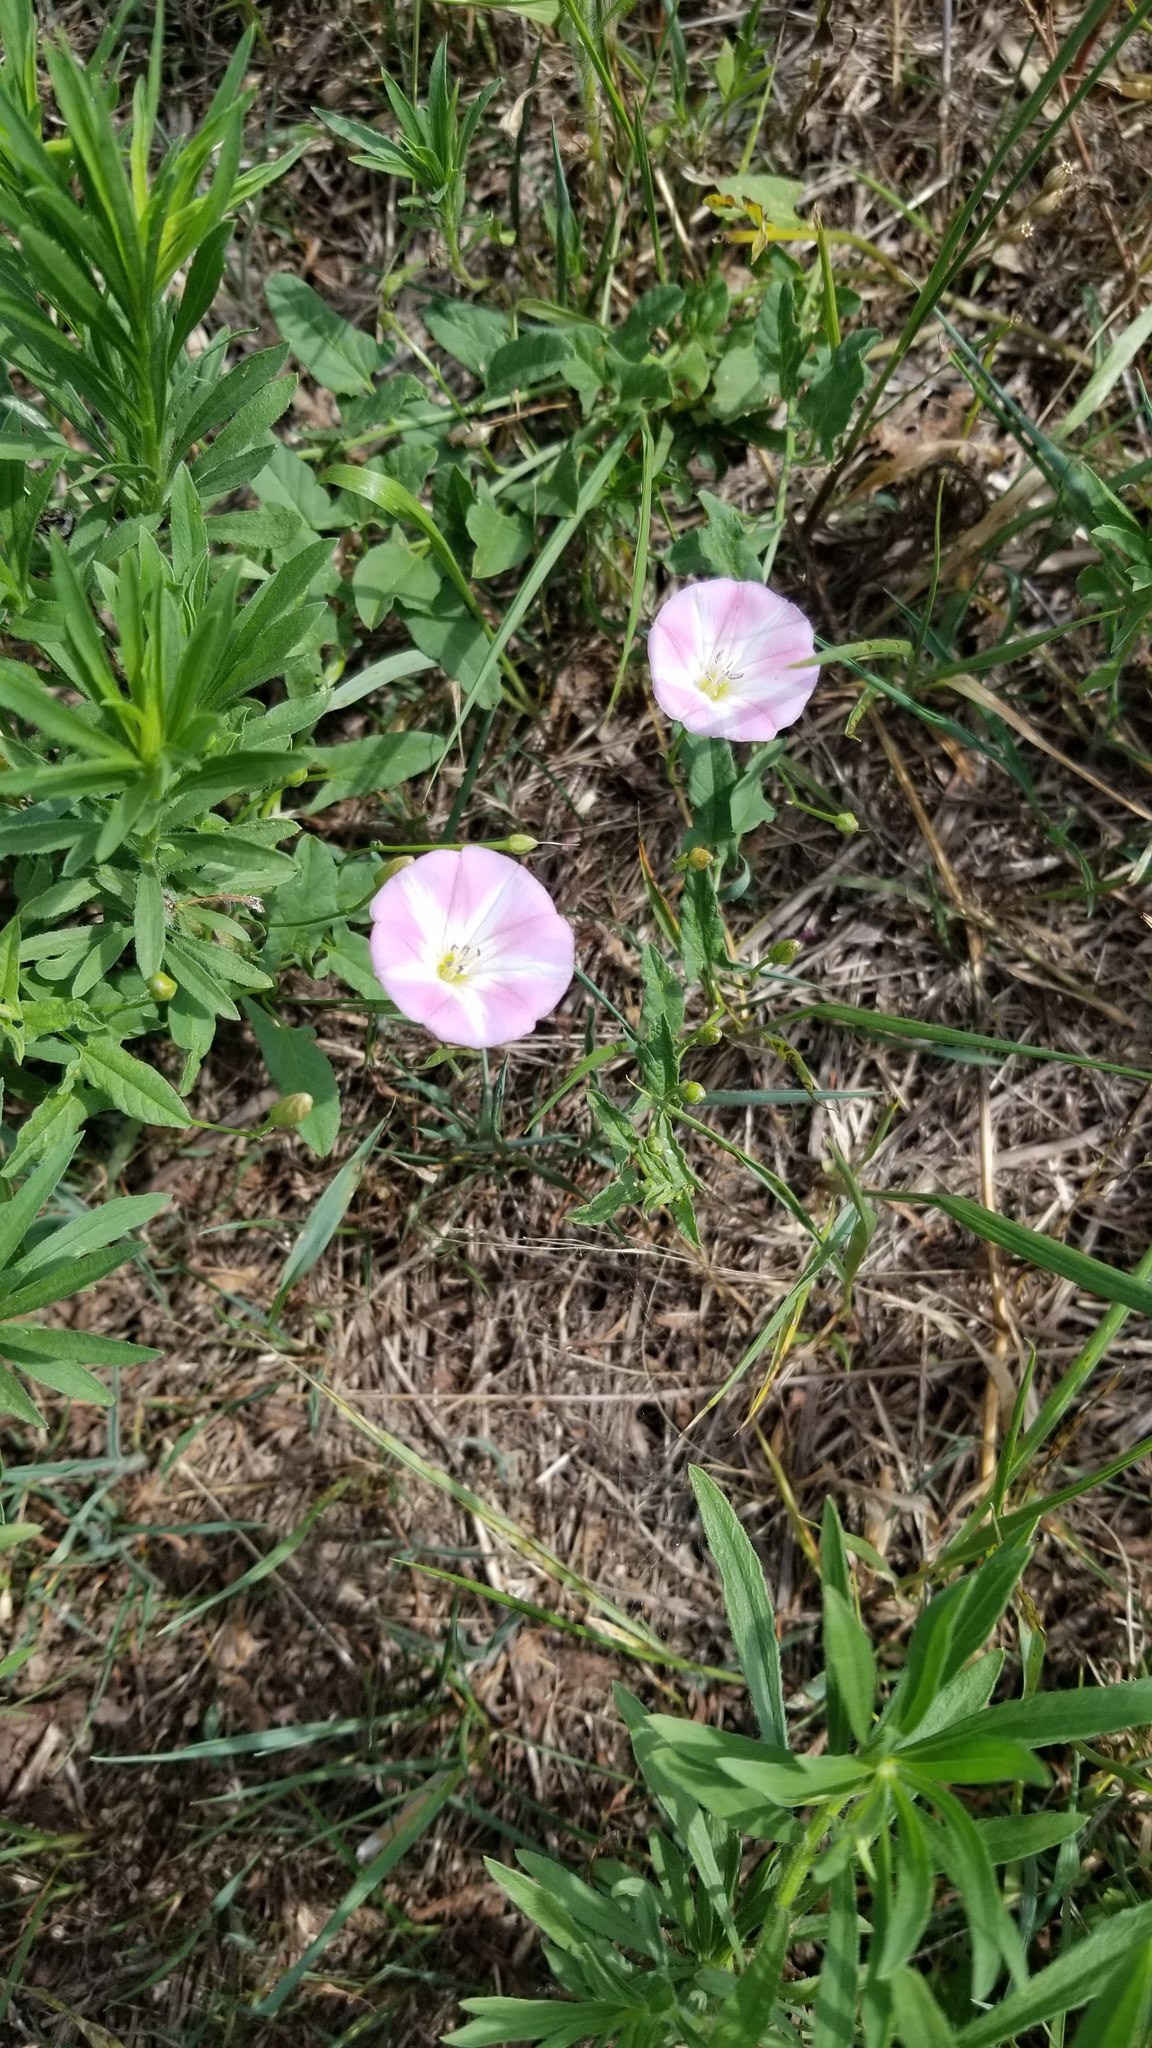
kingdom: Plantae
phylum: Tracheophyta
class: Magnoliopsida
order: Solanales
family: Convolvulaceae
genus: Convolvulus
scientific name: Convolvulus arvensis
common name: Field bindweed
